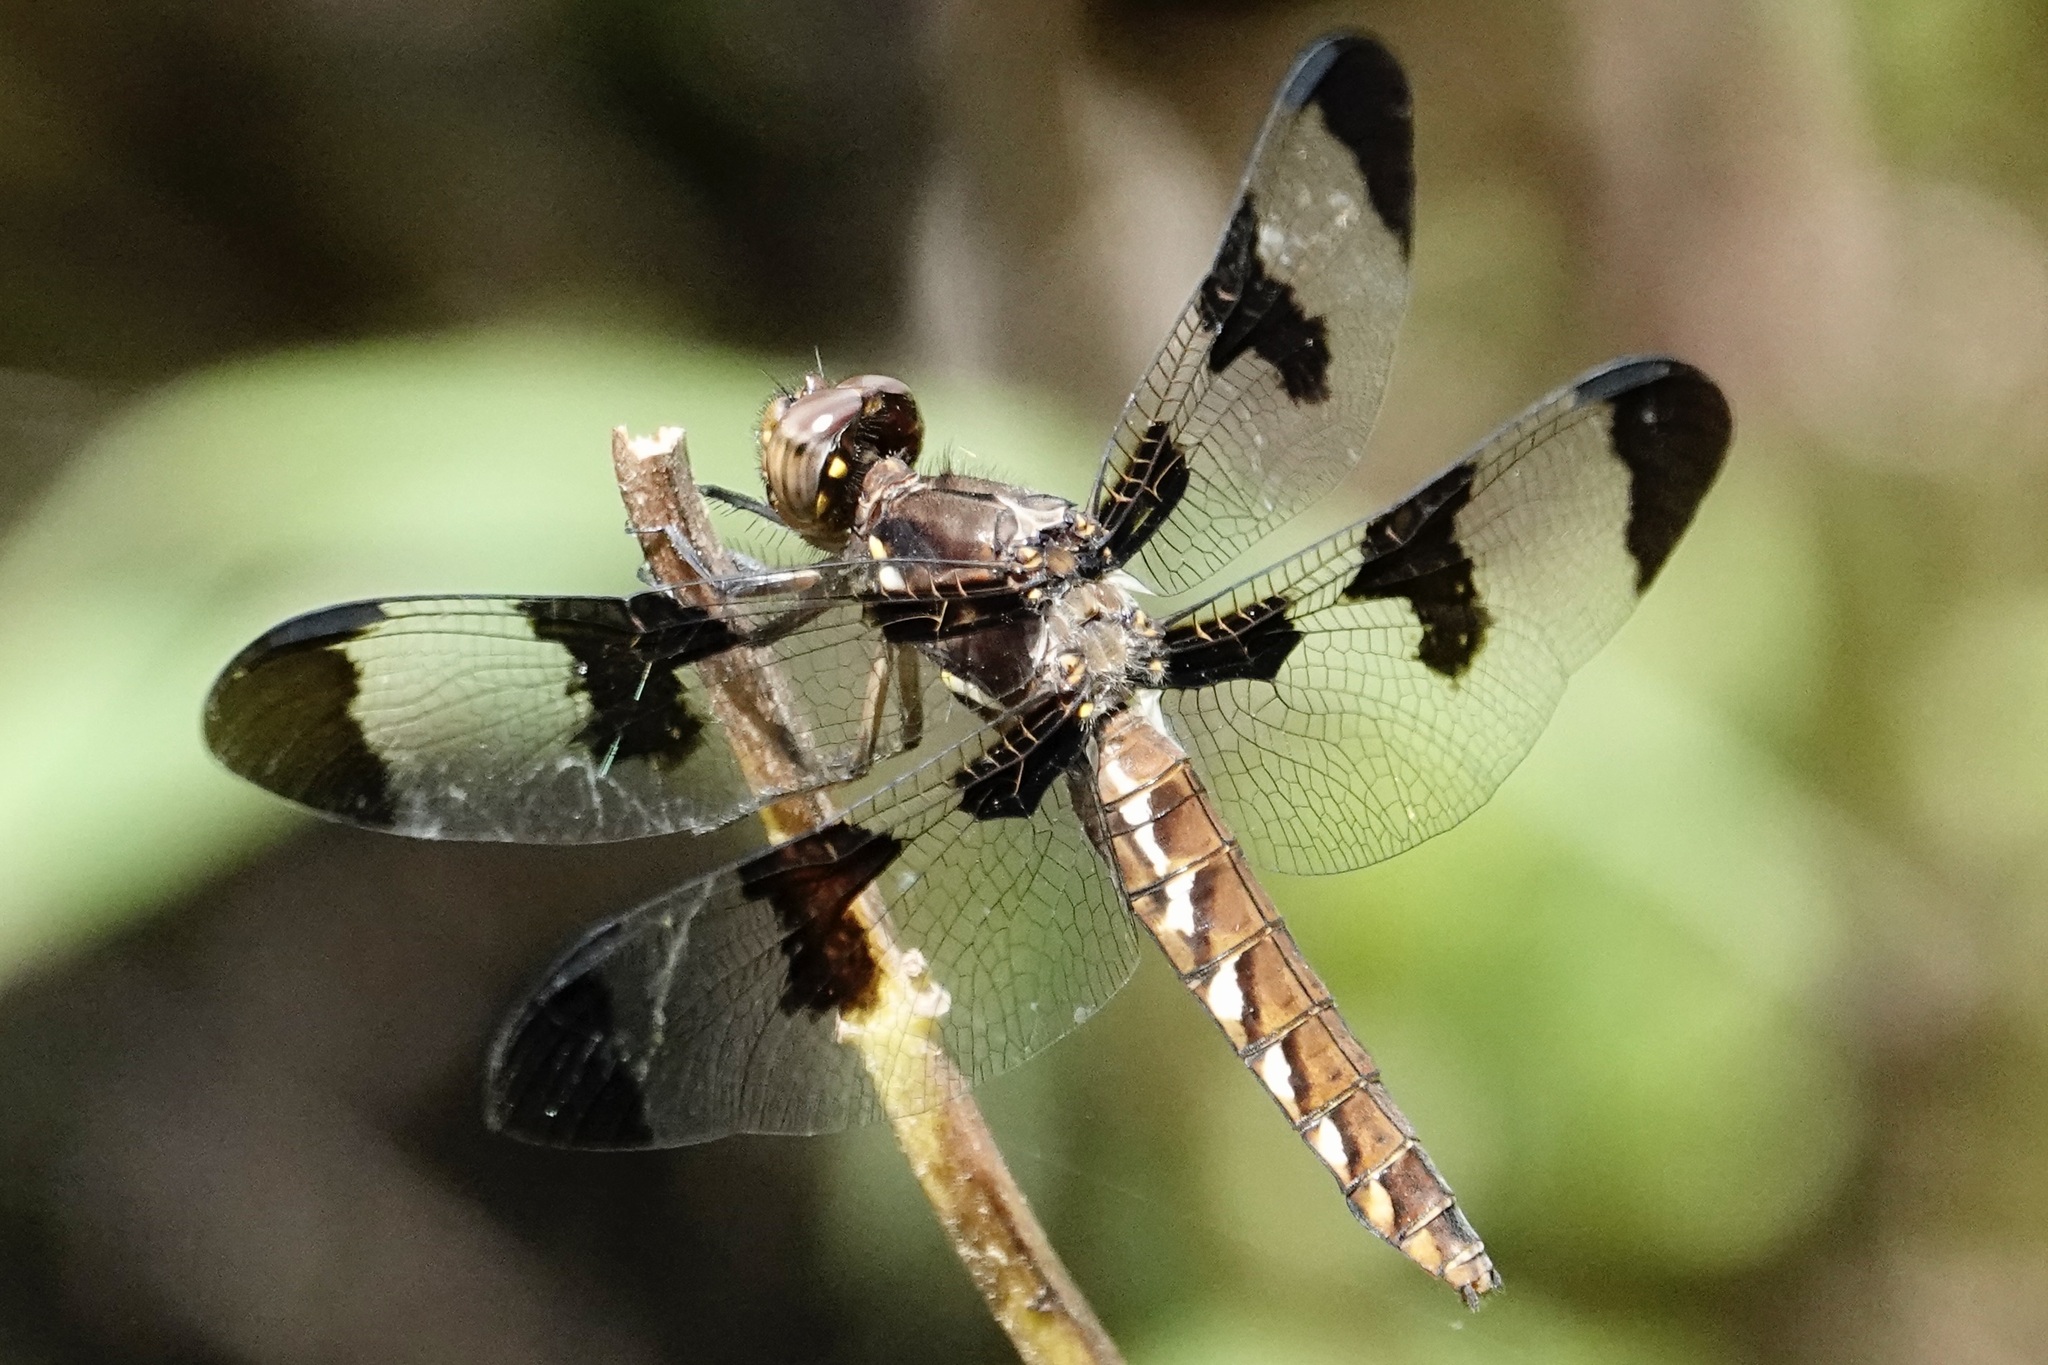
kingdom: Animalia
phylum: Arthropoda
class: Insecta
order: Odonata
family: Libellulidae
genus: Plathemis
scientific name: Plathemis lydia
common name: Common whitetail
